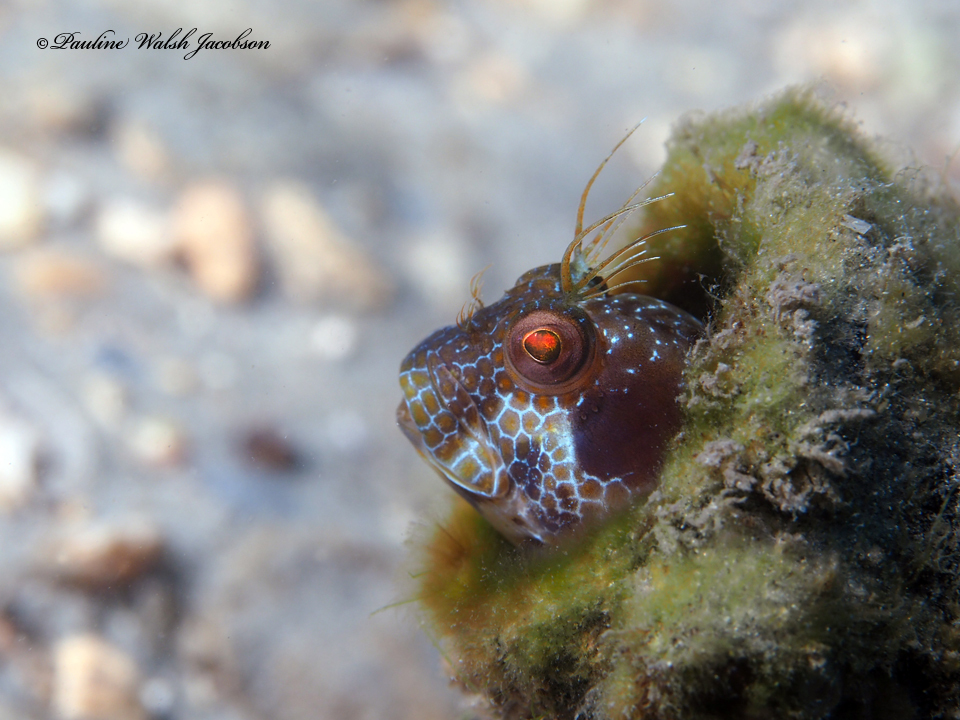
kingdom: Animalia
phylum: Chordata
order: Perciformes
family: Blenniidae
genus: Parablennius
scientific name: Parablennius marmoreus
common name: Seaweed blenny
